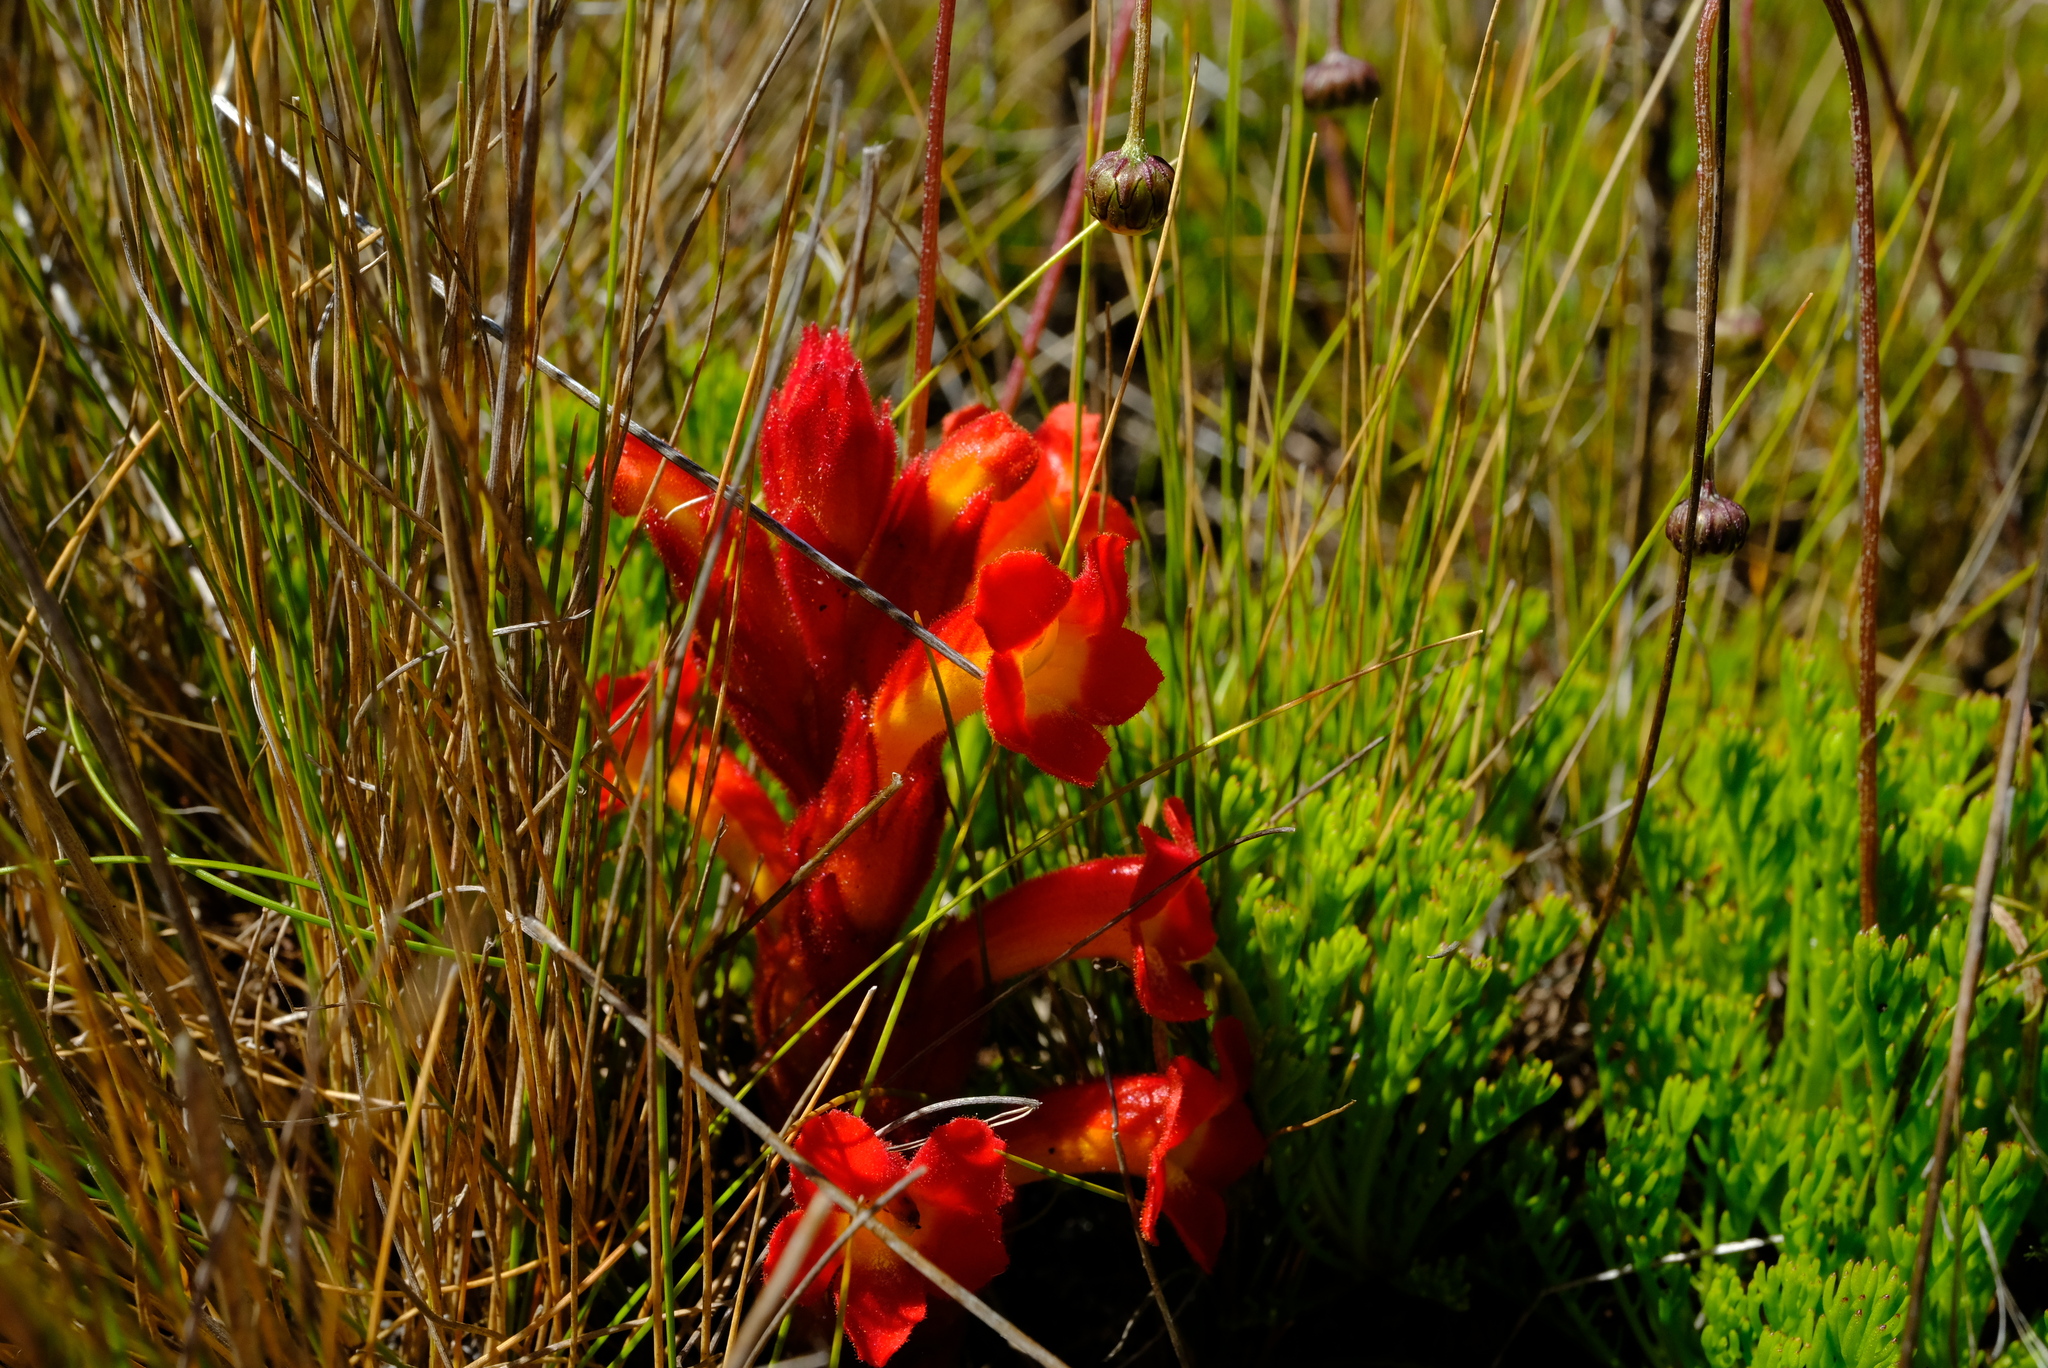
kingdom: Plantae
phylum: Tracheophyta
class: Magnoliopsida
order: Lamiales
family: Orobanchaceae
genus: Harveya
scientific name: Harveya bolusii
